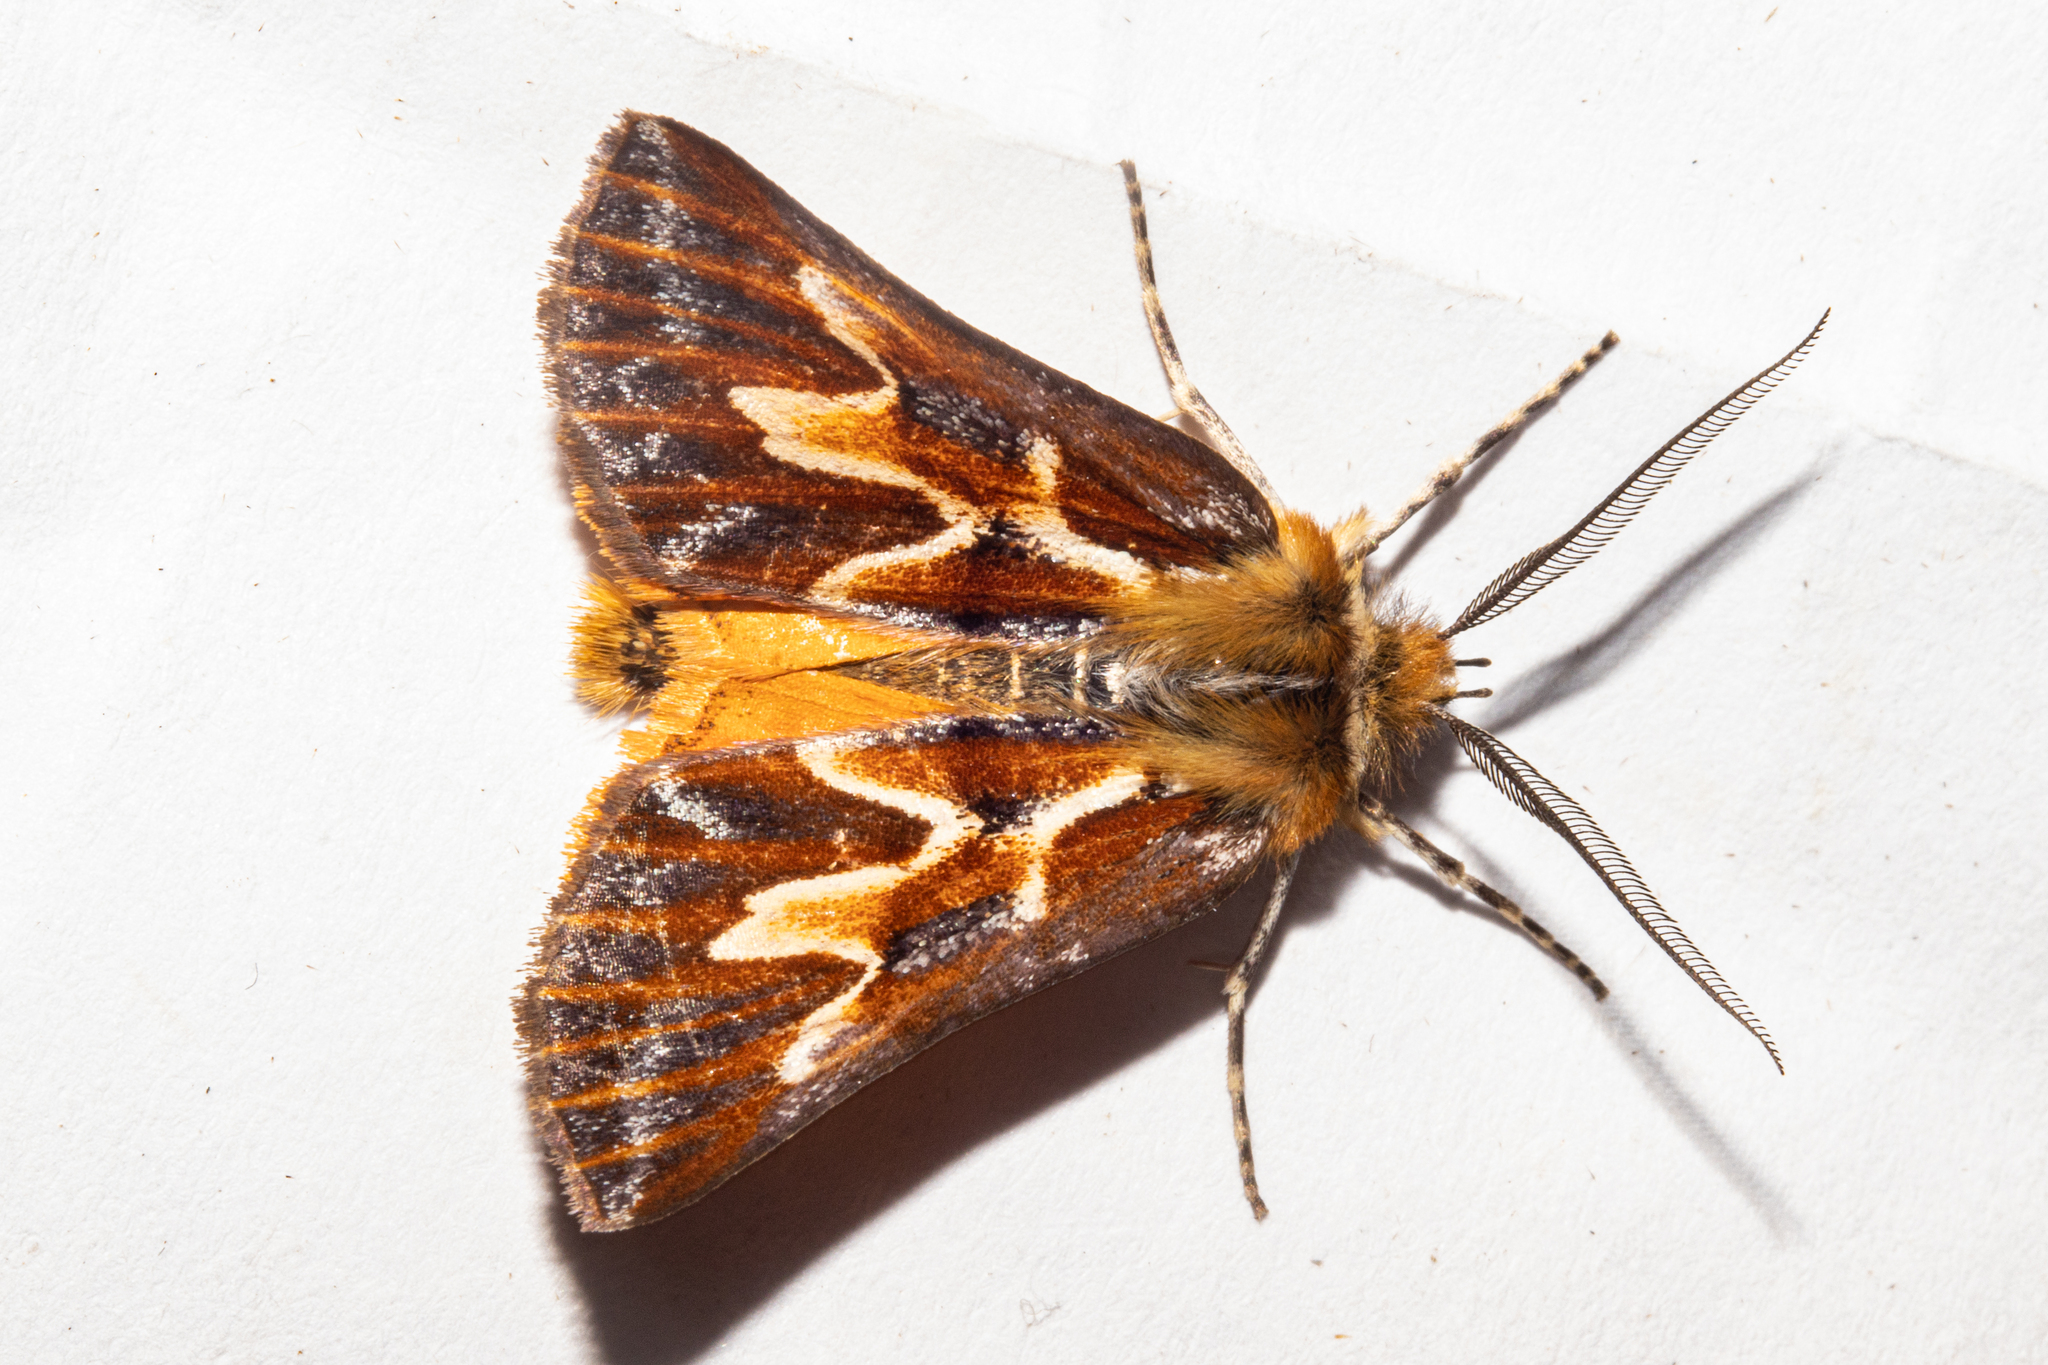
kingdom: Animalia
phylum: Arthropoda
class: Insecta
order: Lepidoptera
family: Geometridae
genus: Declana
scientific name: Declana
